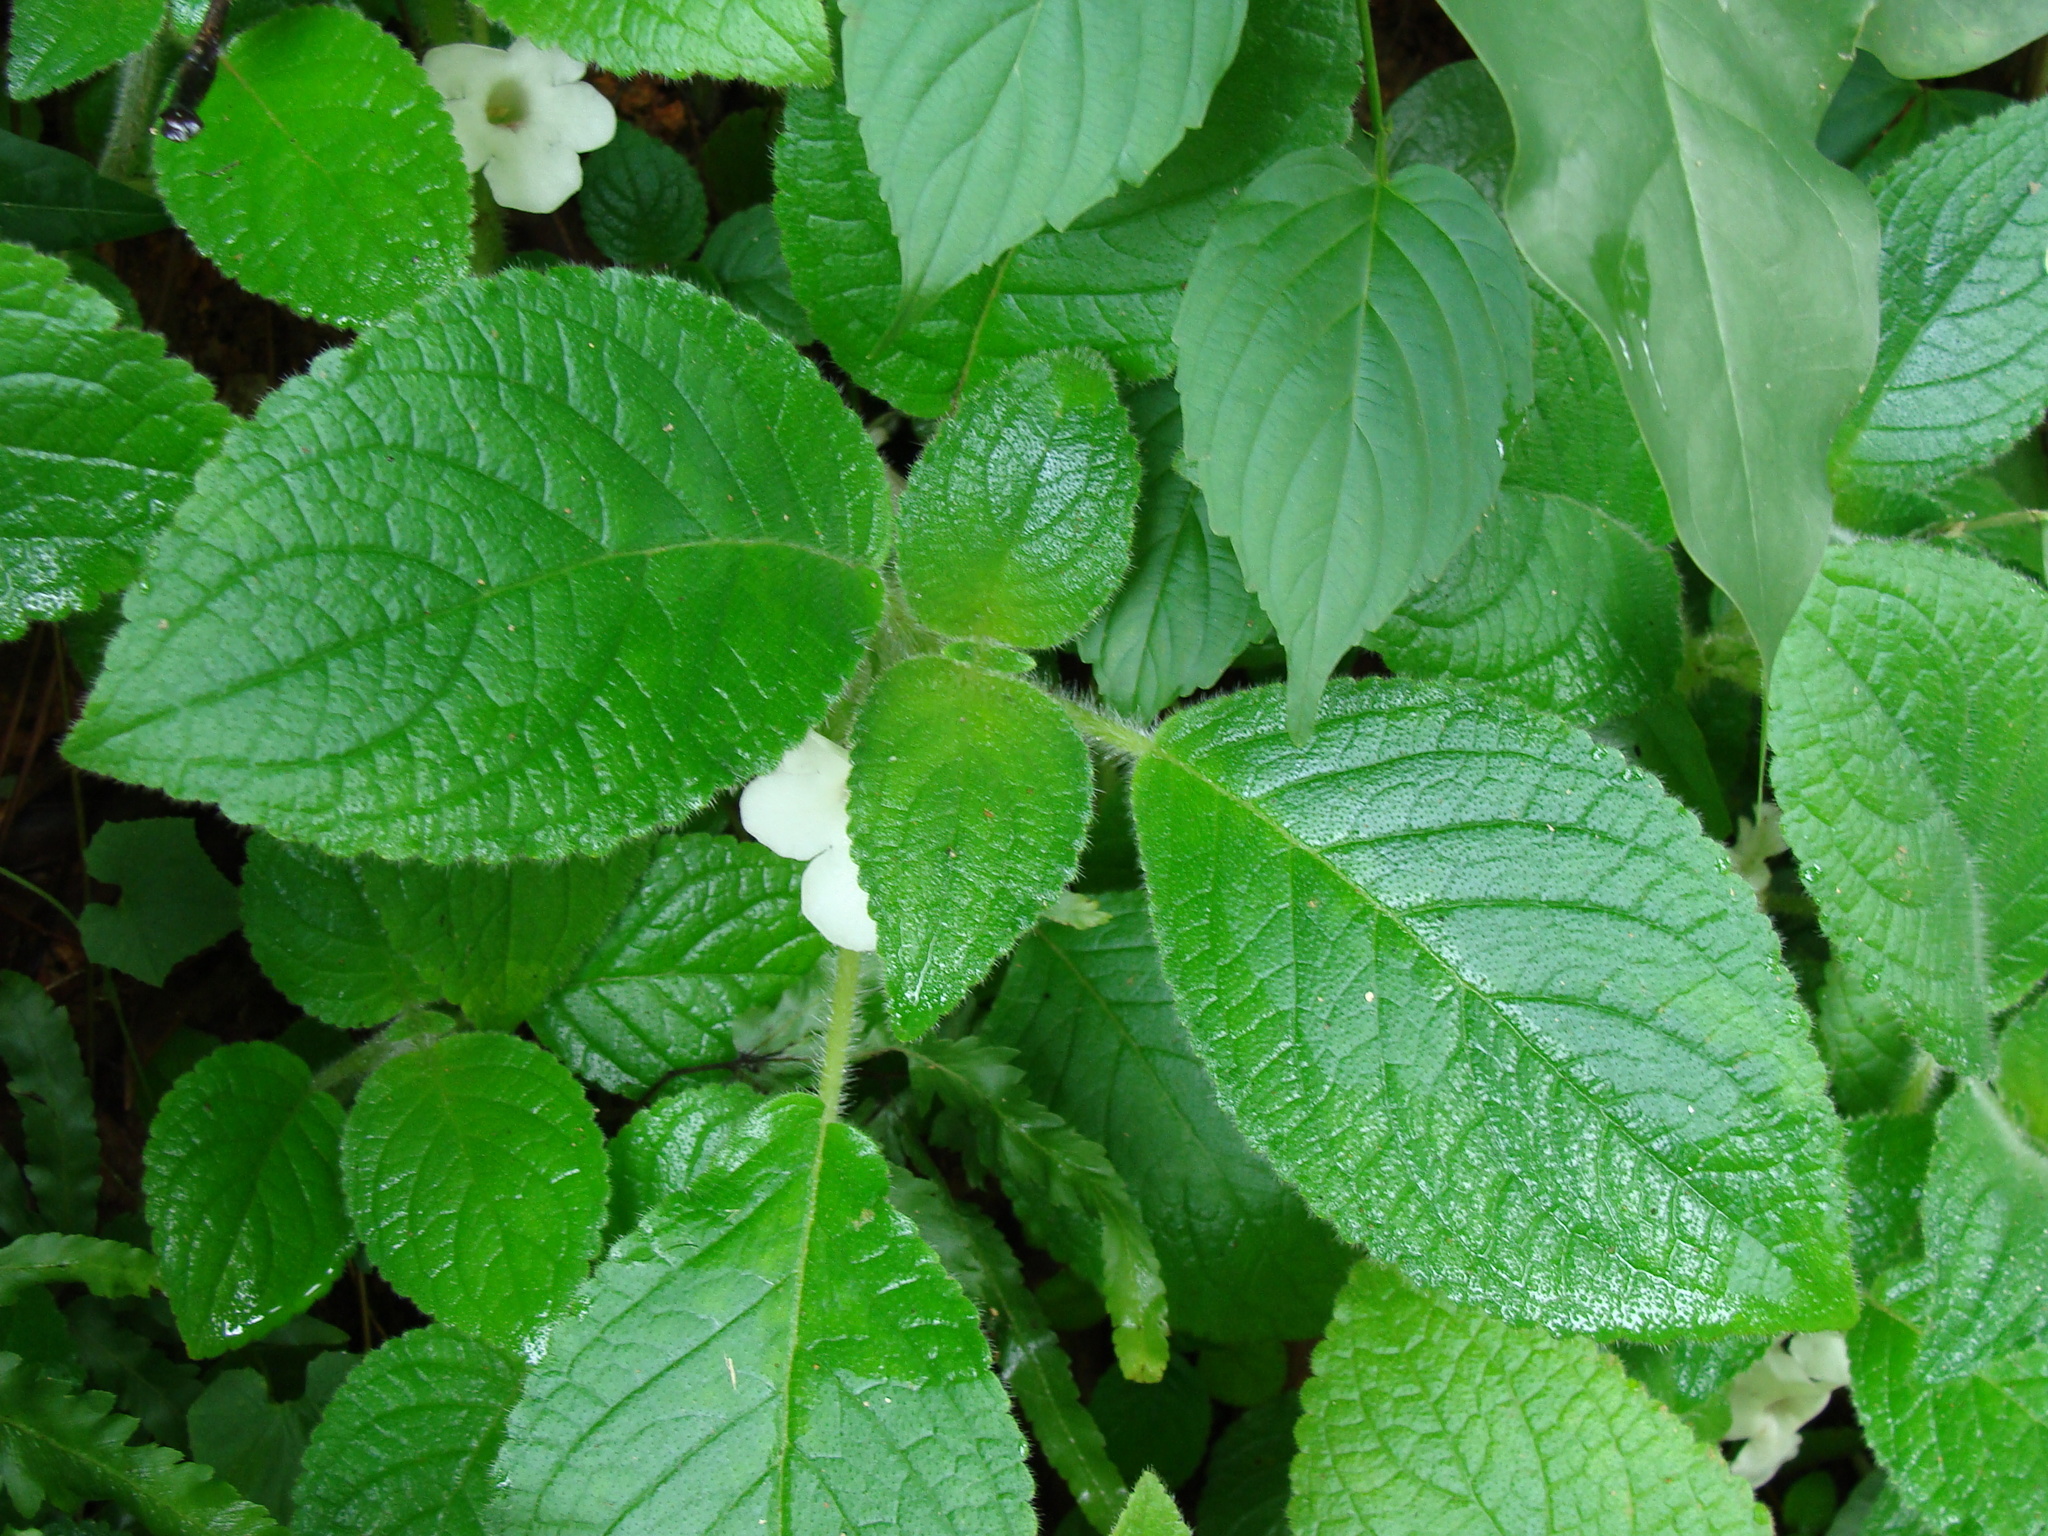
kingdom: Plantae
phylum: Tracheophyta
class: Magnoliopsida
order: Lamiales
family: Gesneriaceae
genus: Chrysothemis
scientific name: Chrysothemis panamensis
